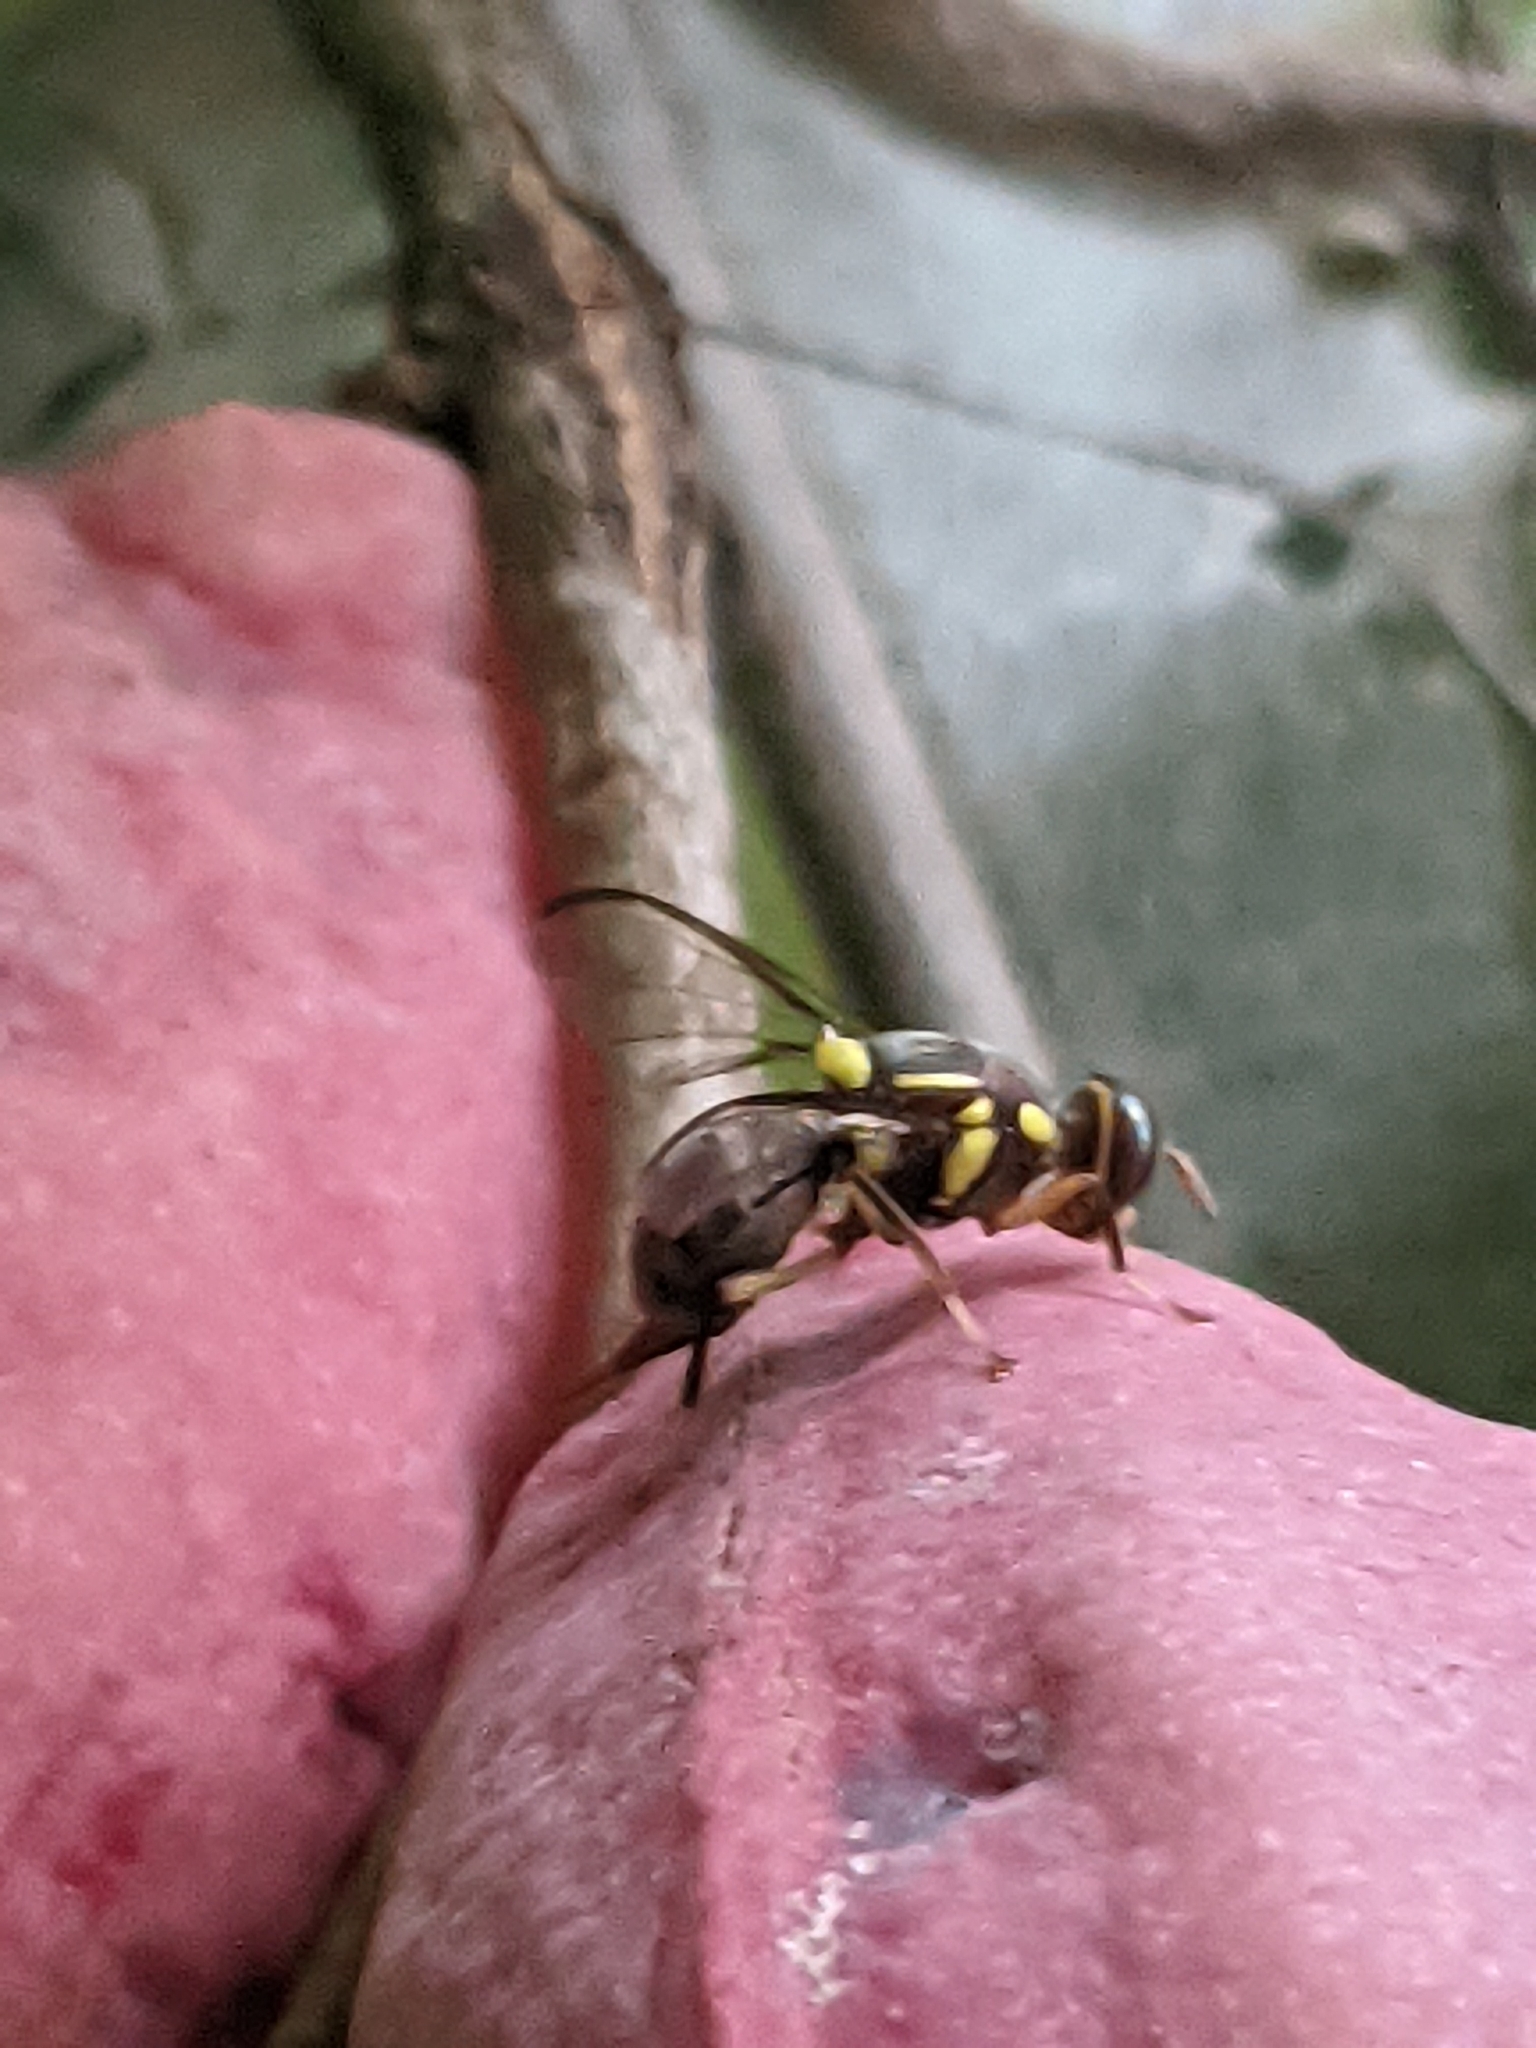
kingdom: Animalia
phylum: Arthropoda
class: Insecta
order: Diptera
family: Tephritidae
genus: Bactrocera
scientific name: Bactrocera dorsalis
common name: Oriental fruit fly
